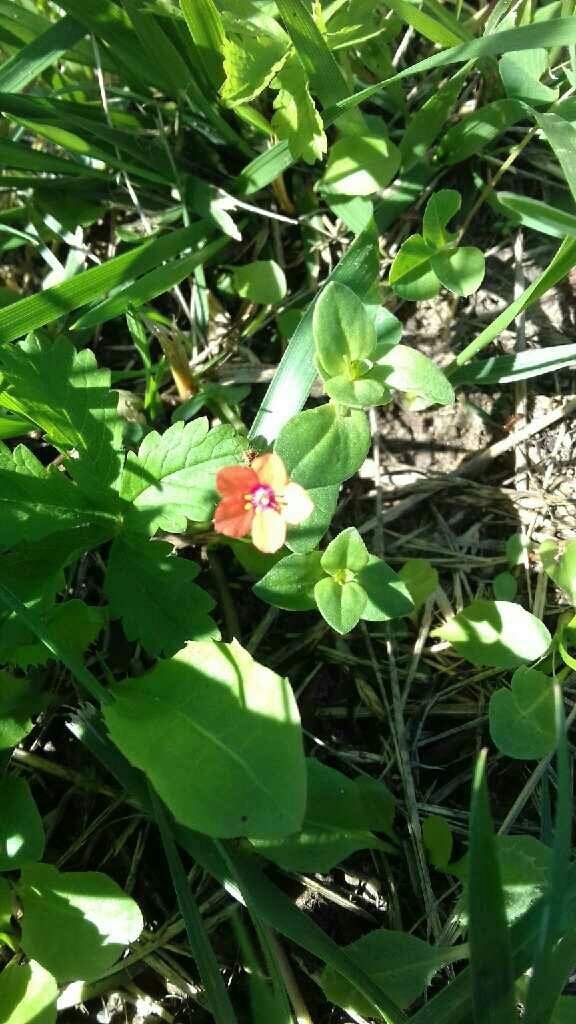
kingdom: Plantae
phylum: Tracheophyta
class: Magnoliopsida
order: Ericales
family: Primulaceae
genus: Lysimachia
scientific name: Lysimachia arvensis
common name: Scarlet pimpernel
